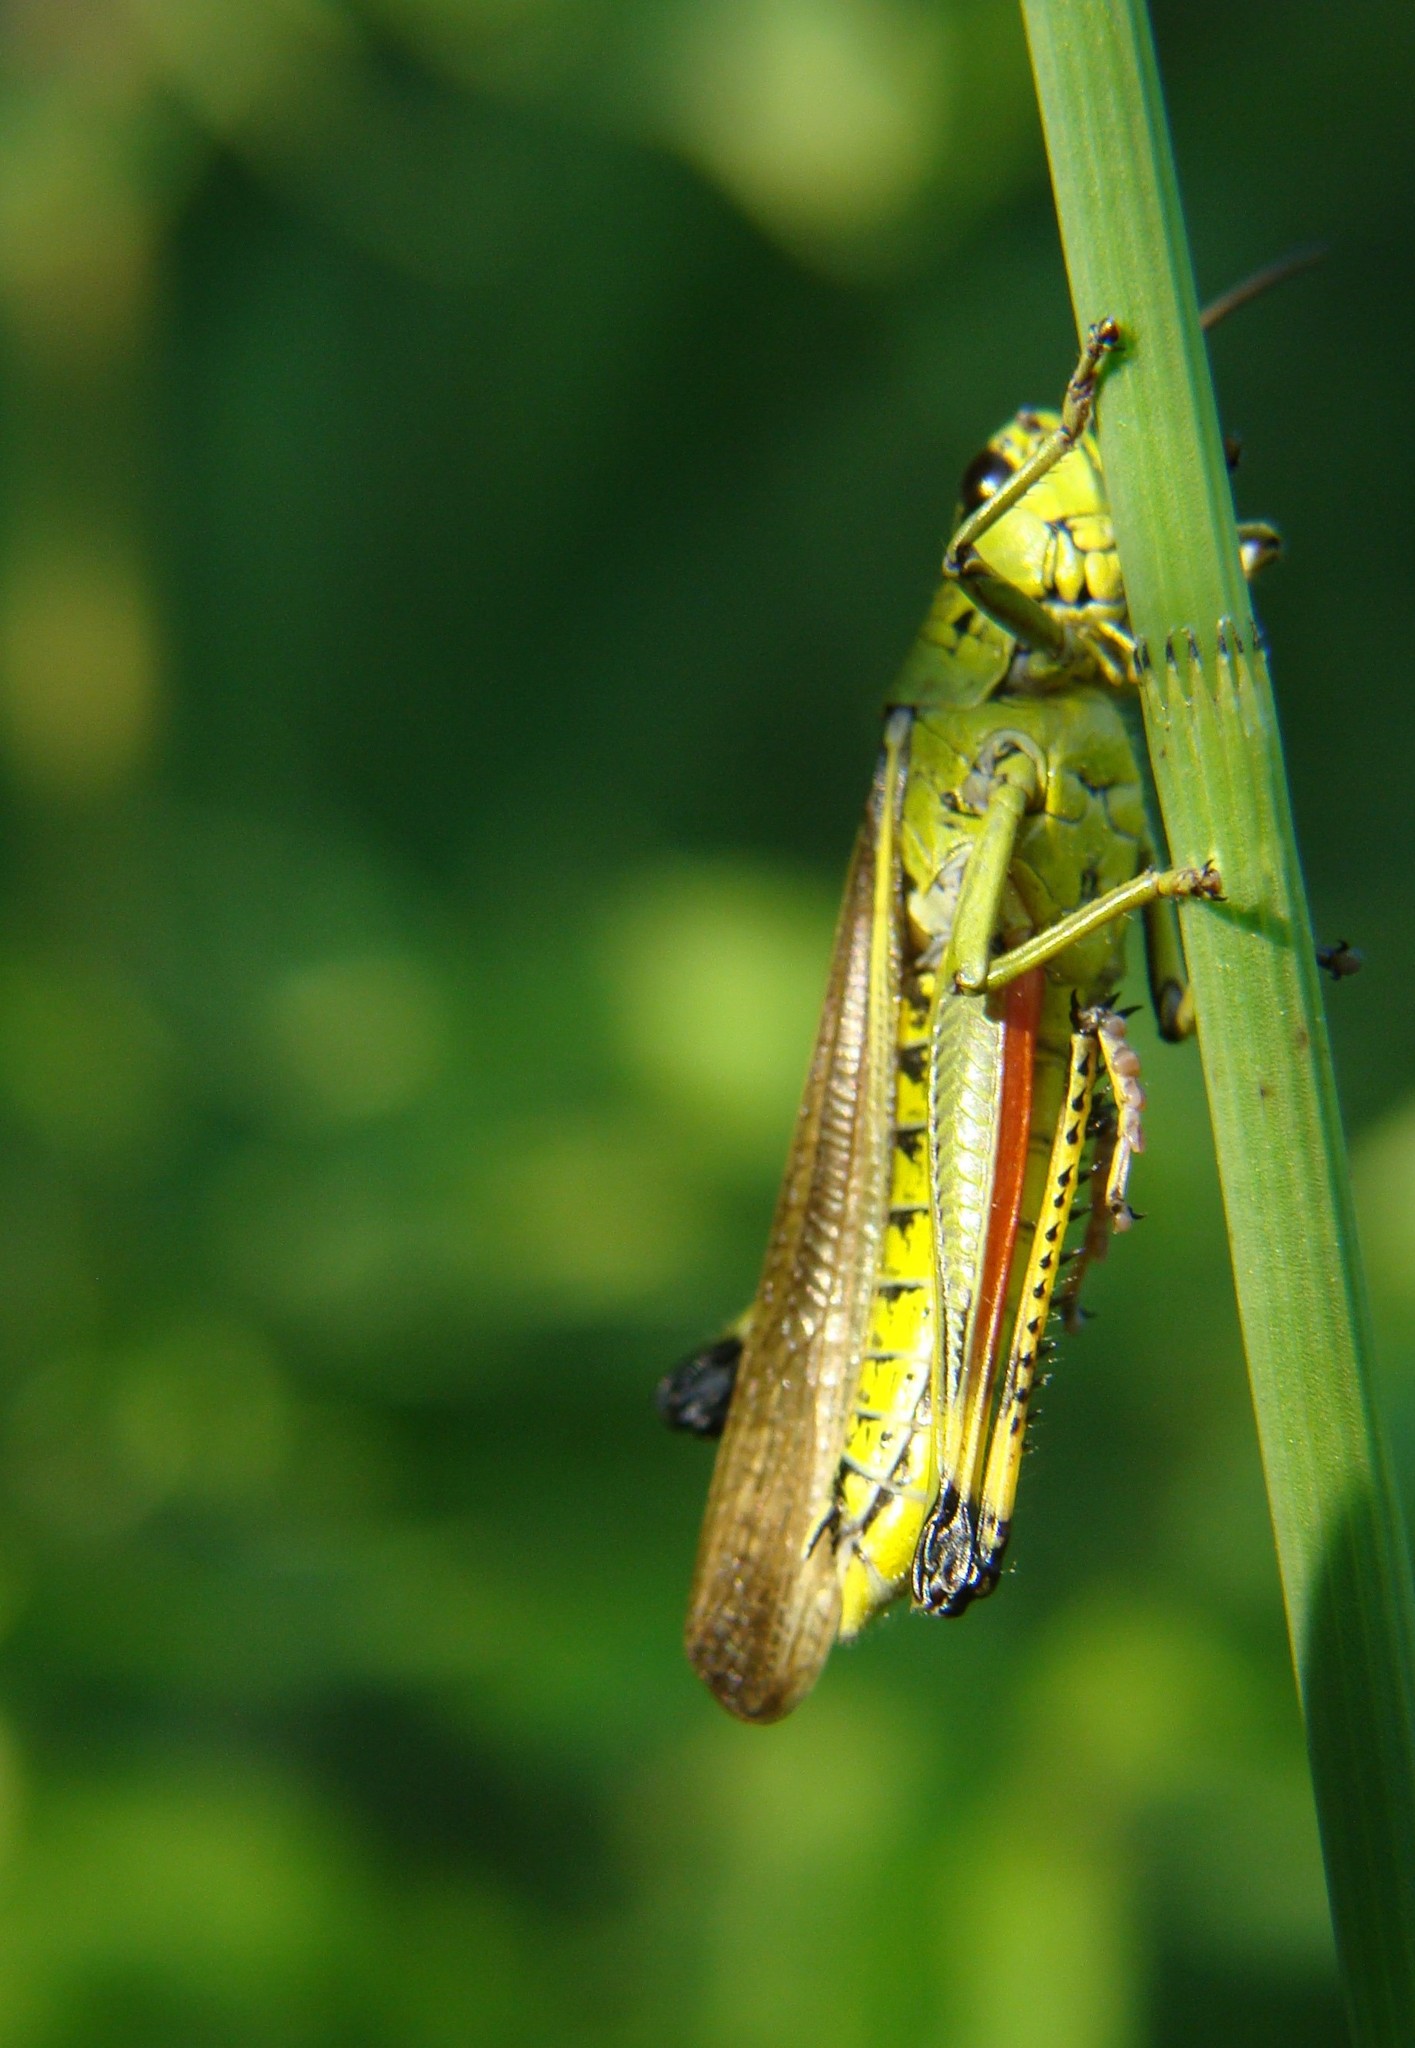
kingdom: Animalia
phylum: Arthropoda
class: Insecta
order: Orthoptera
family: Acrididae
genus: Stethophyma
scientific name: Stethophyma grossum
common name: Large marsh grasshopper
